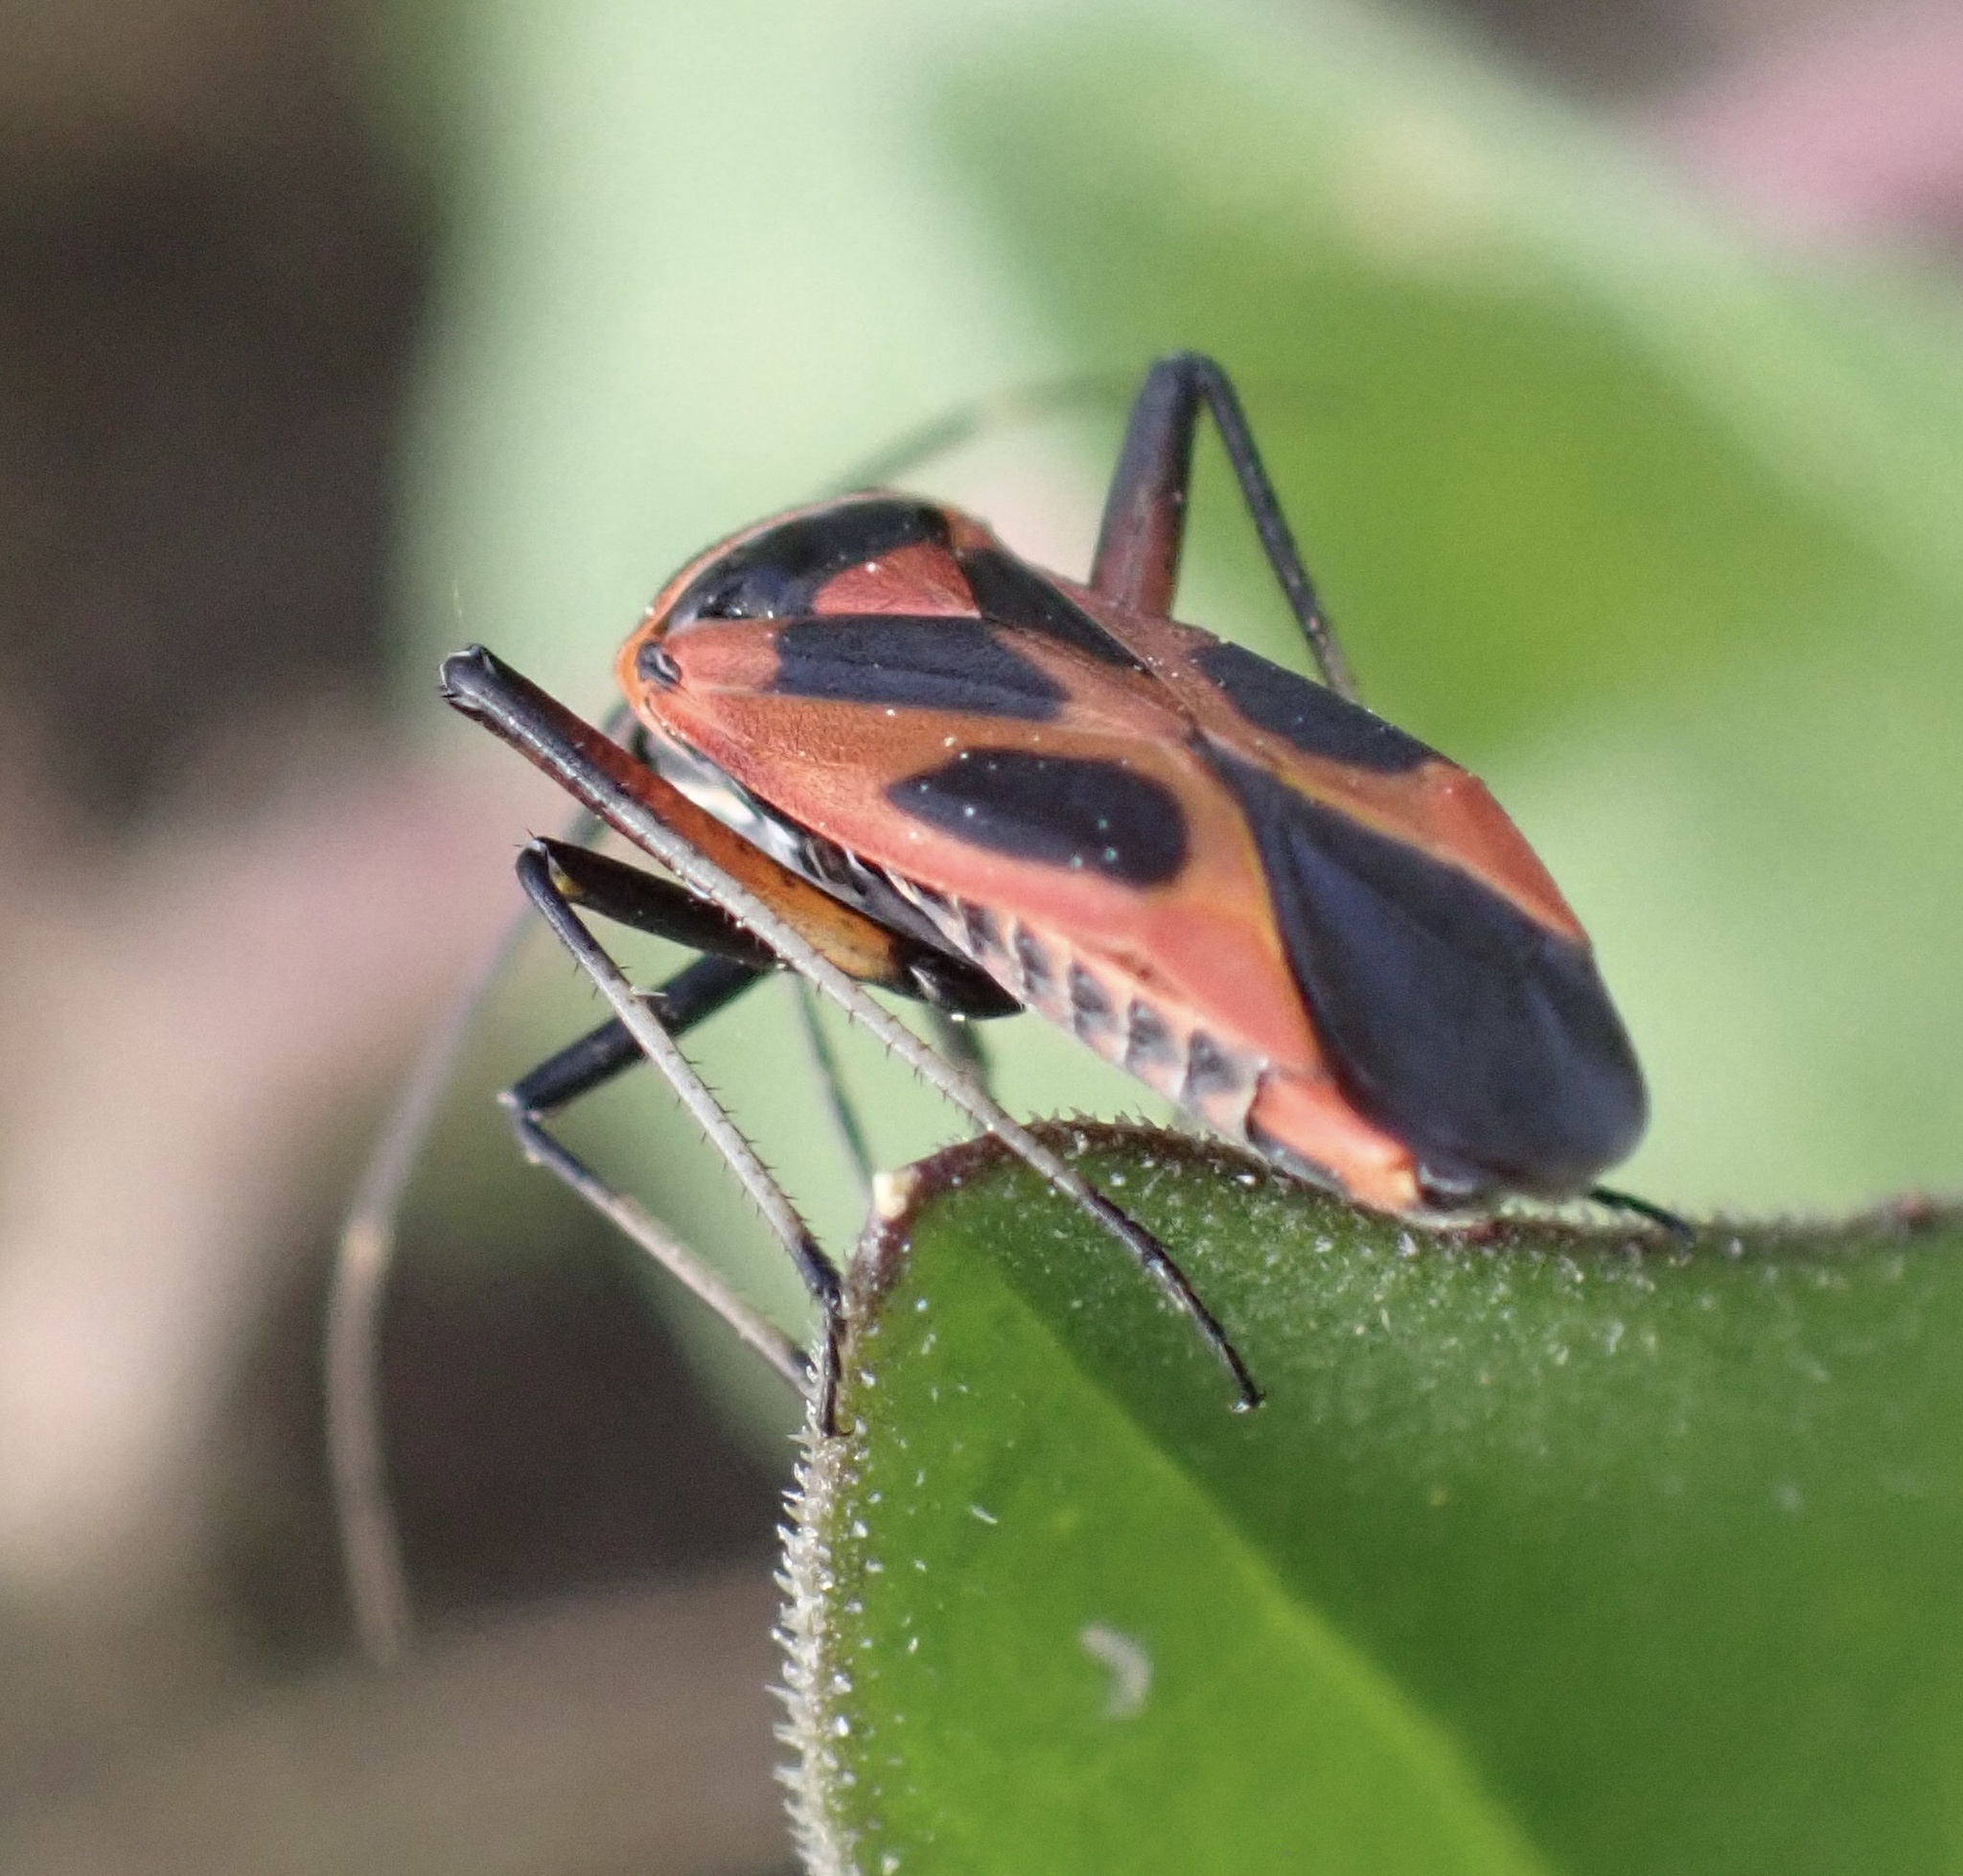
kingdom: Animalia
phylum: Arthropoda
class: Insecta
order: Hemiptera
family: Miridae
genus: Calocoris
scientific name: Calocoris nemoralis
